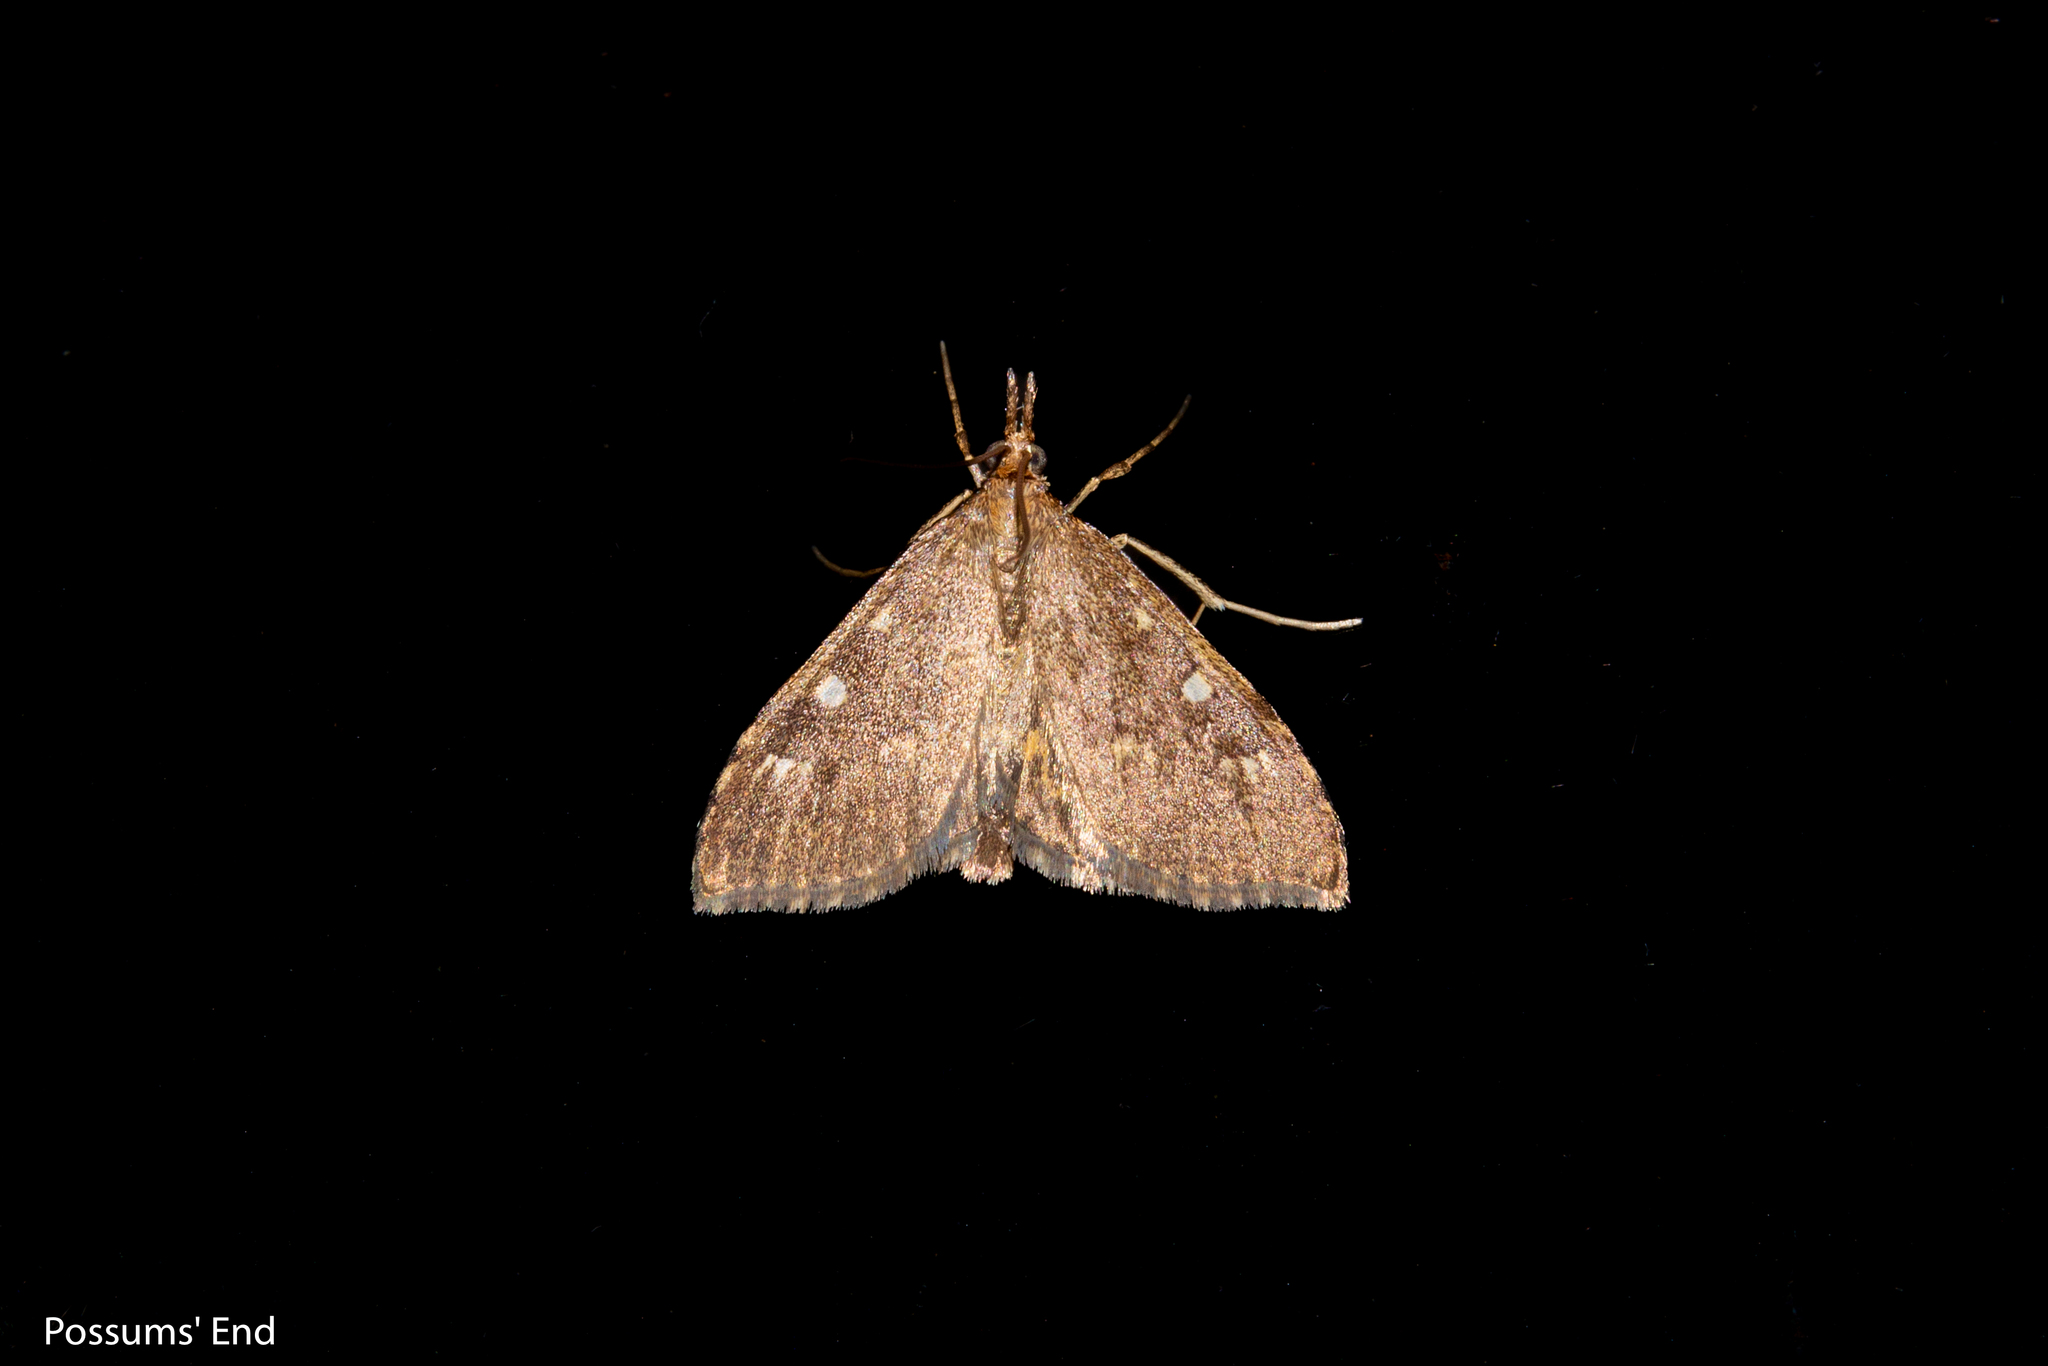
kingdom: Animalia
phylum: Arthropoda
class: Insecta
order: Lepidoptera
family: Crambidae
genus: Udea
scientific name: Udea Mnesictena marmarina
